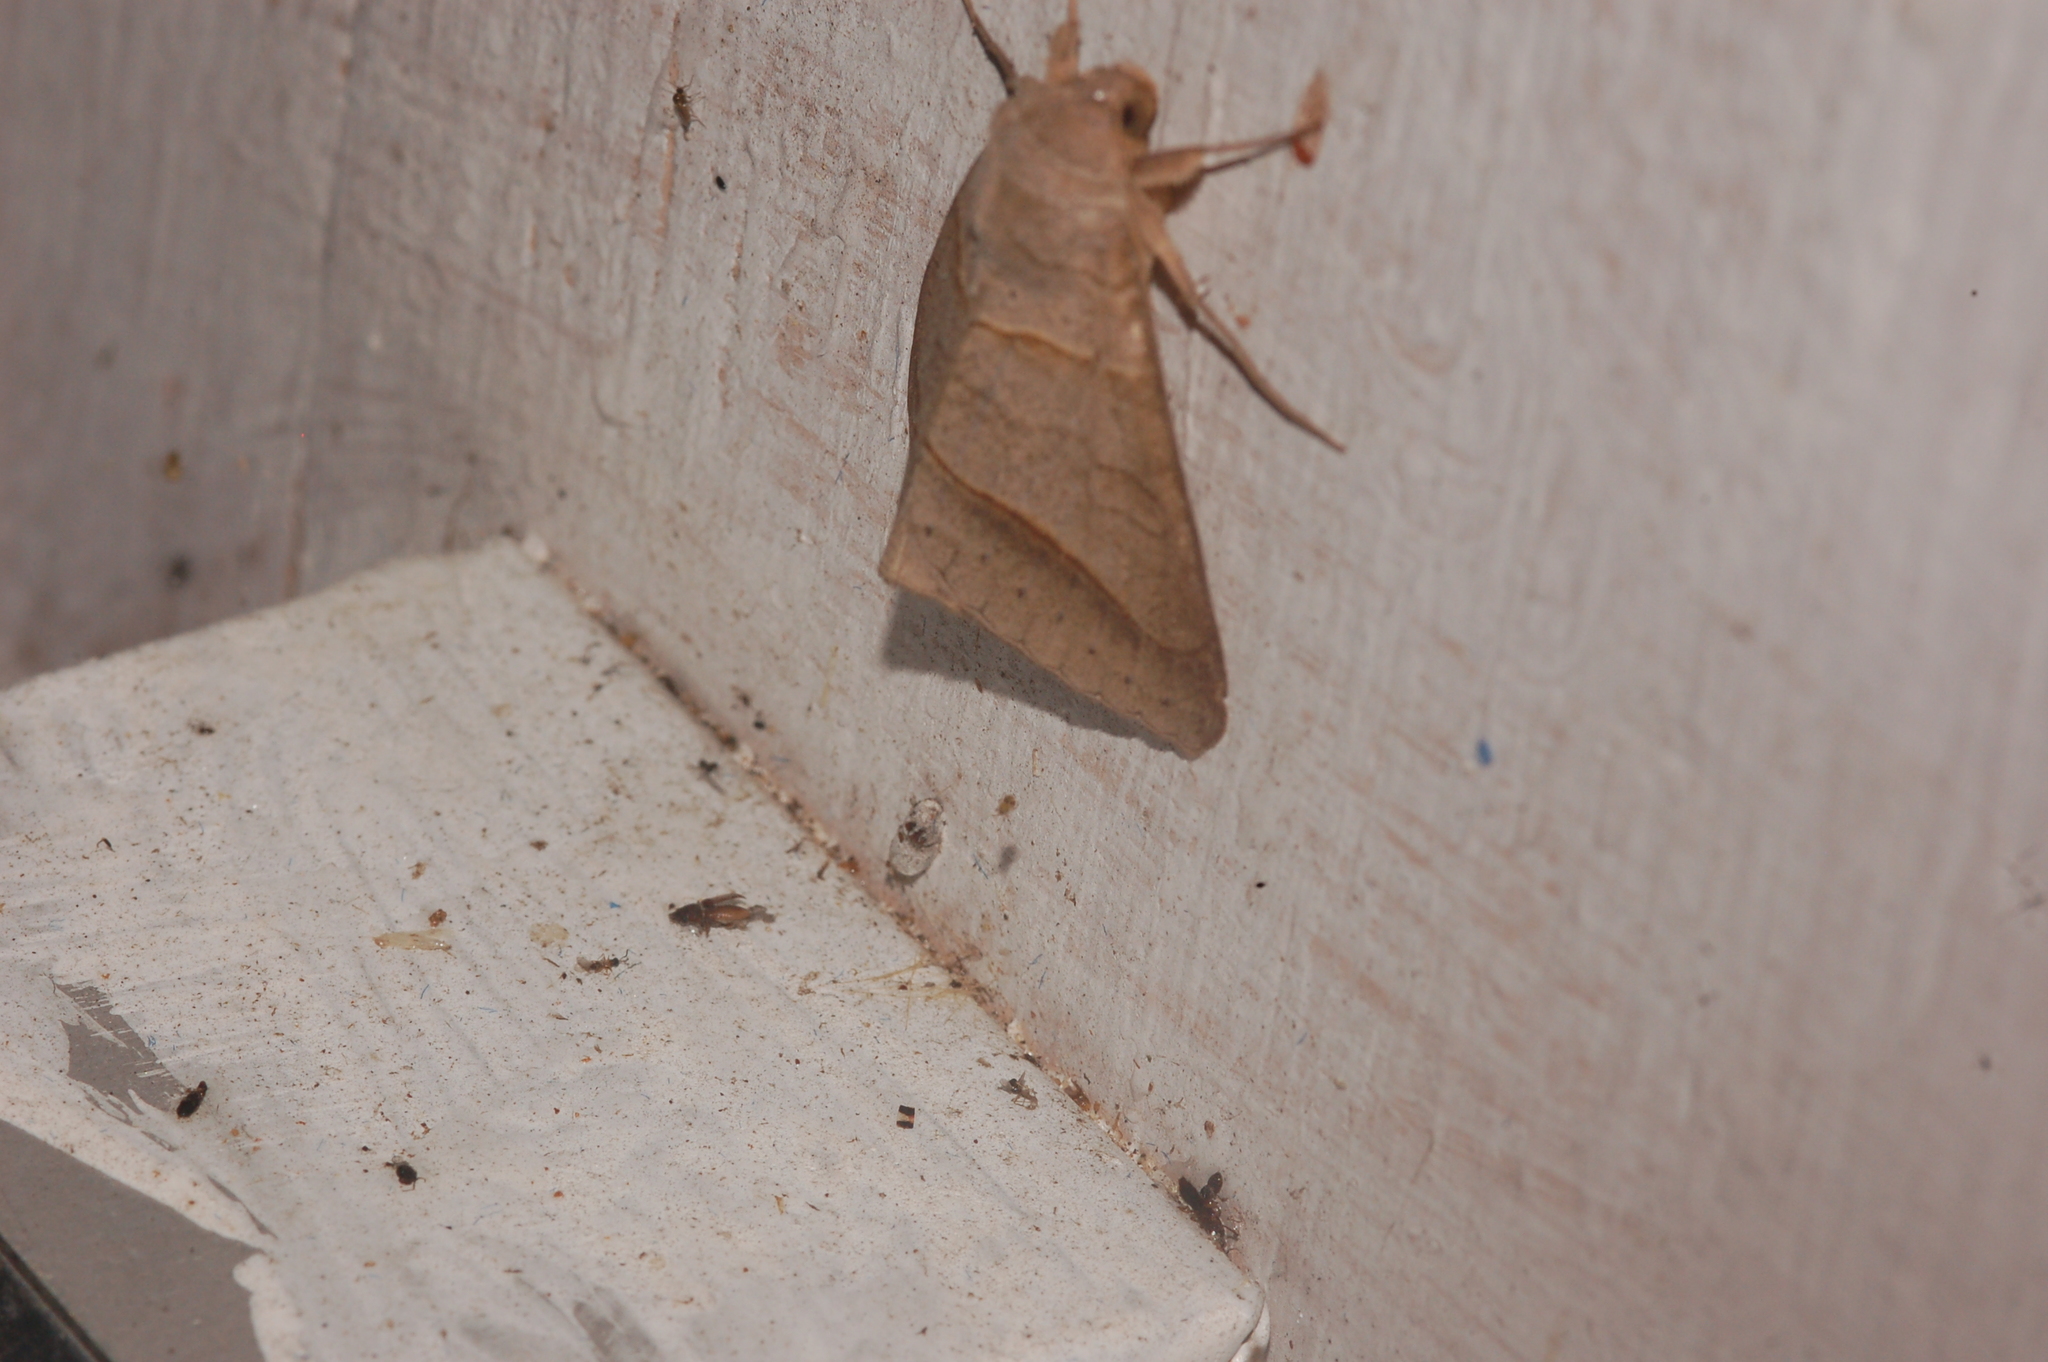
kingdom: Animalia
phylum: Arthropoda
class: Insecta
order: Lepidoptera
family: Erebidae
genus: Mocis
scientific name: Mocis texana
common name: Texas mocis moth
